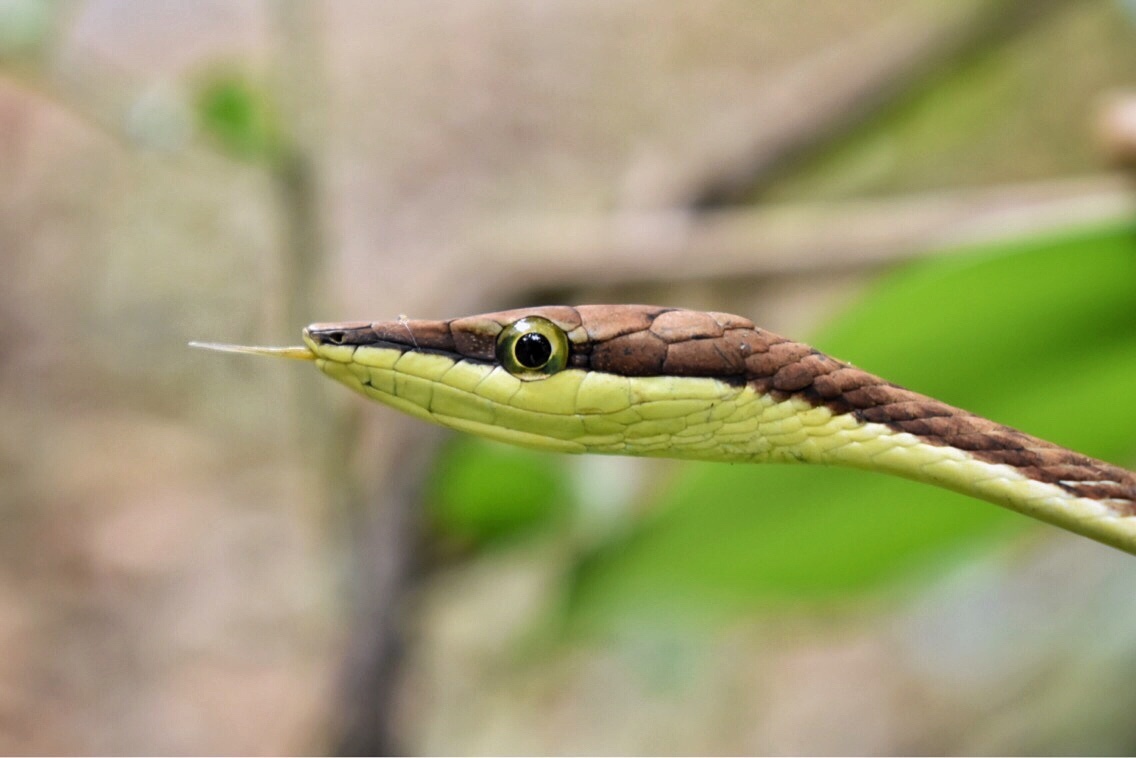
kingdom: Animalia
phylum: Chordata
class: Squamata
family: Colubridae
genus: Oxybelis
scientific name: Oxybelis vittatus
